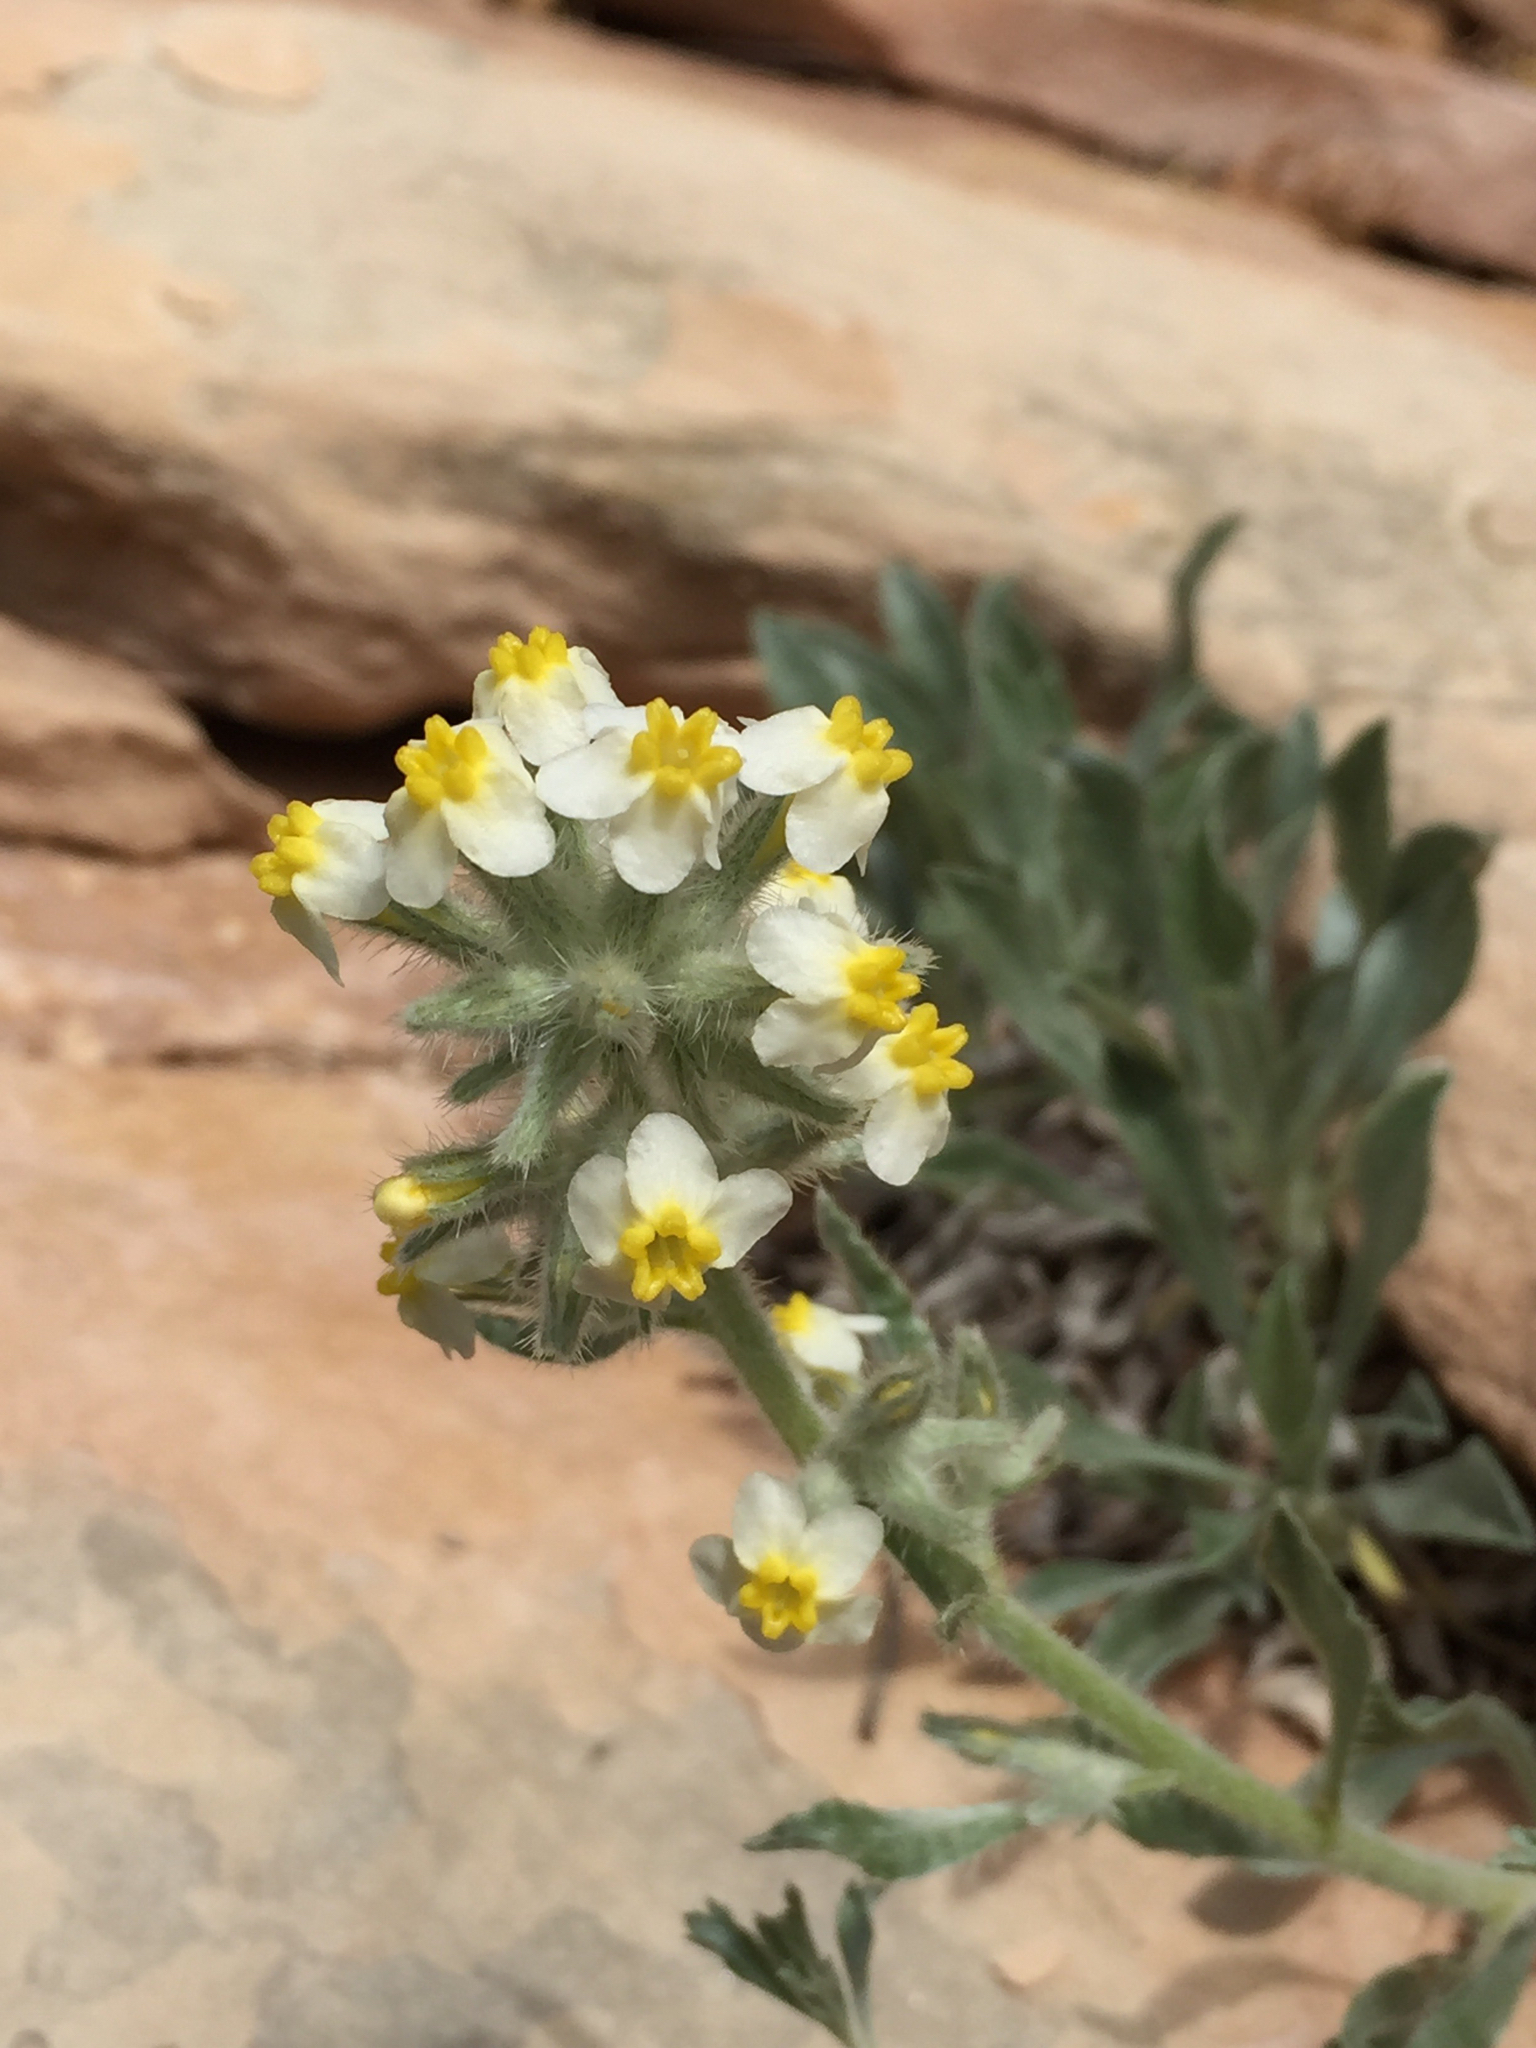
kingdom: Plantae
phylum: Tracheophyta
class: Magnoliopsida
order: Boraginales
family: Boraginaceae
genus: Oreocarya
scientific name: Oreocarya flavoculata
